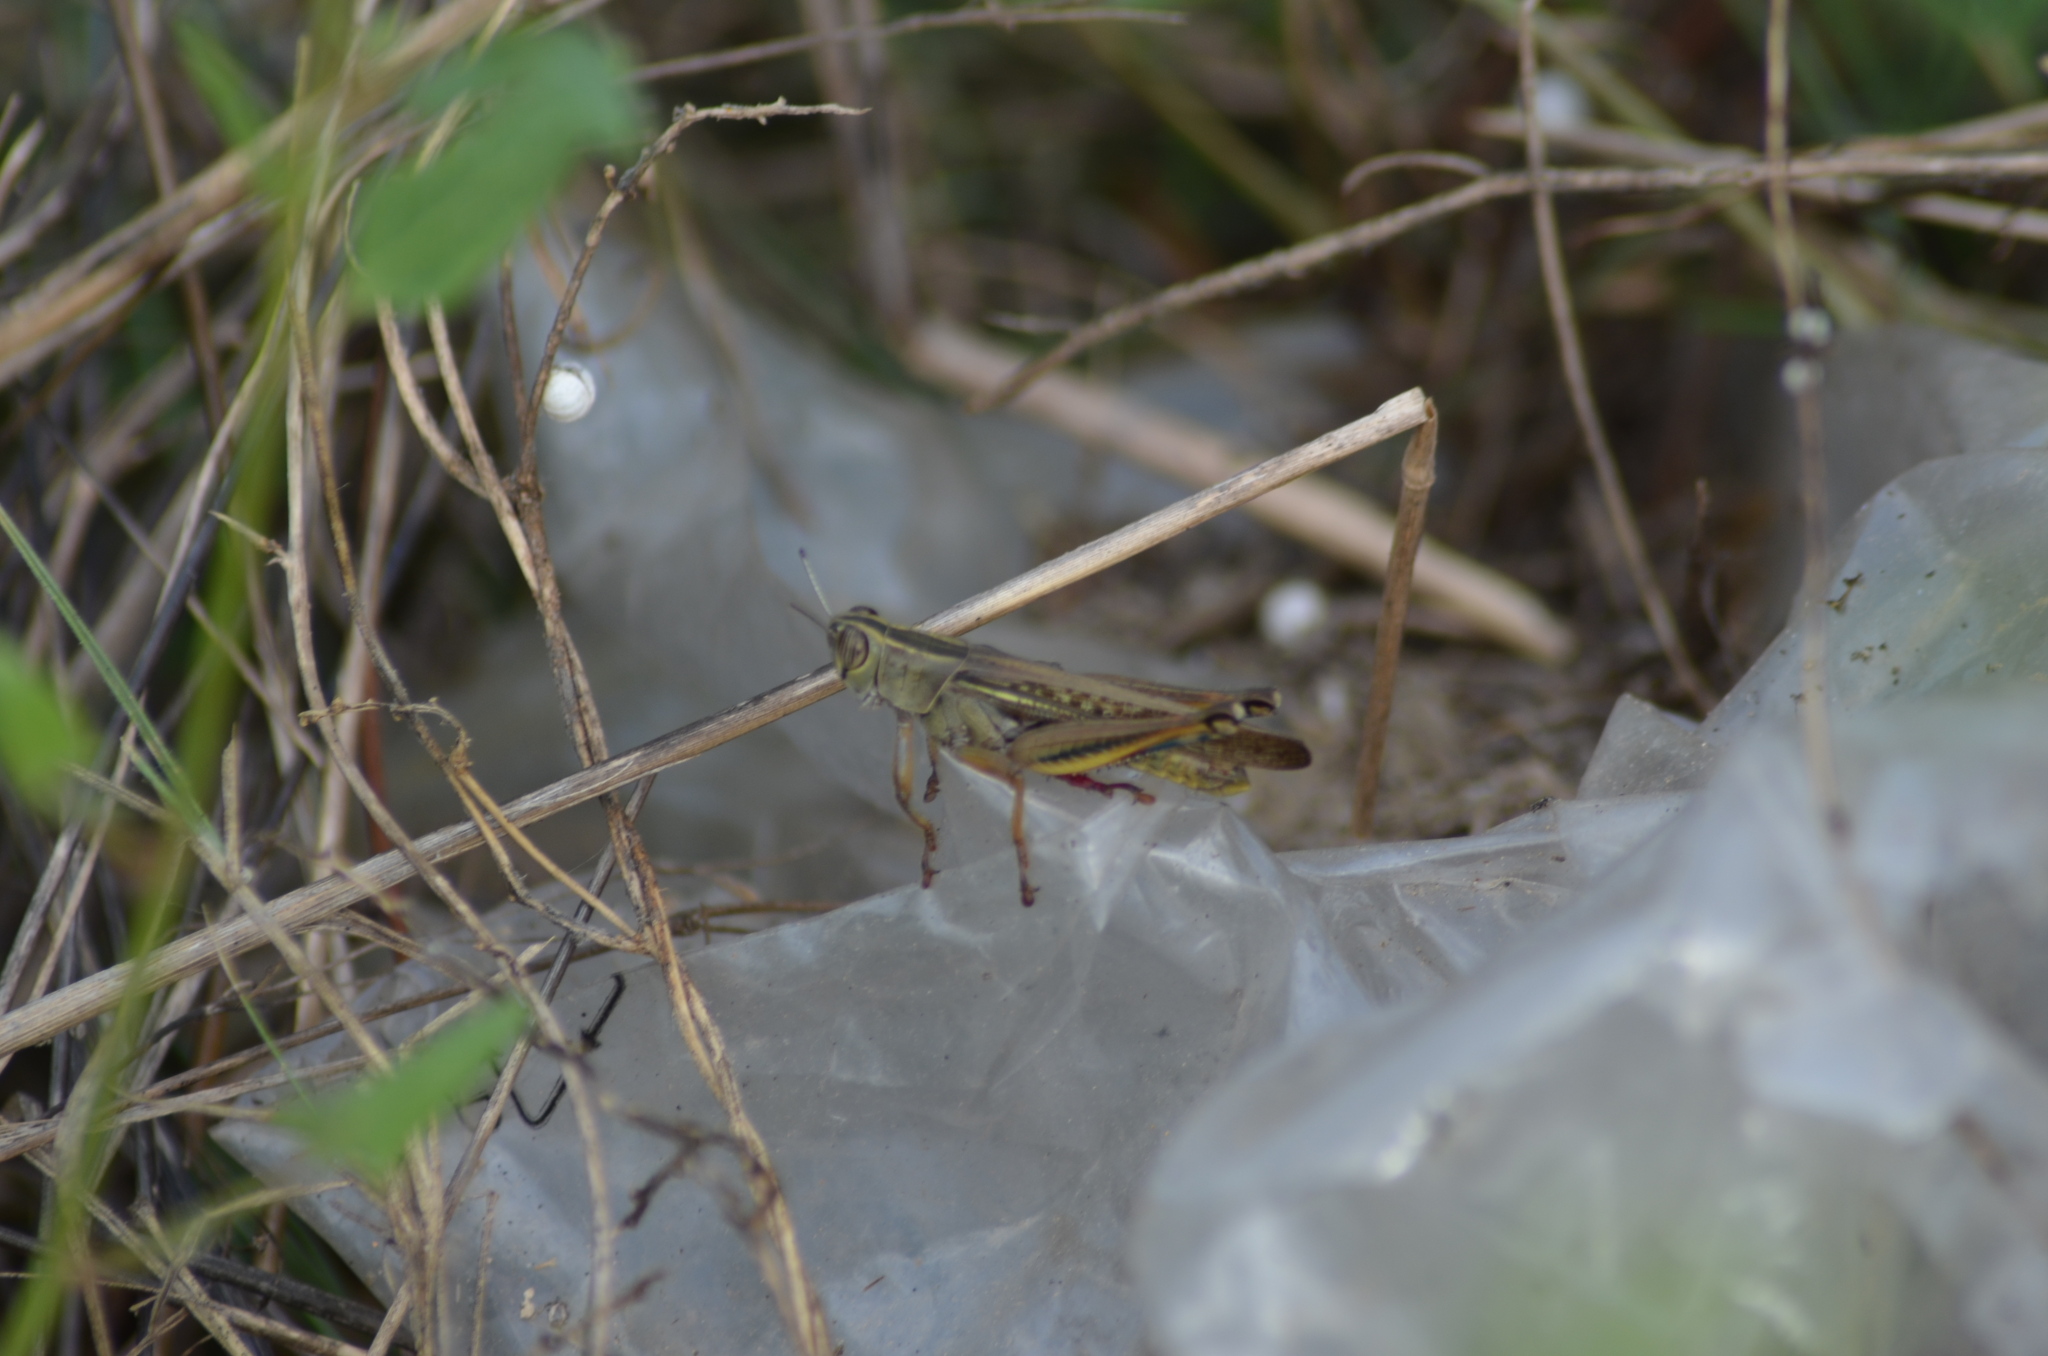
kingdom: Animalia
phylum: Arthropoda
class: Insecta
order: Orthoptera
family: Acrididae
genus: Eyprepocnemis
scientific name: Eyprepocnemis plorans
